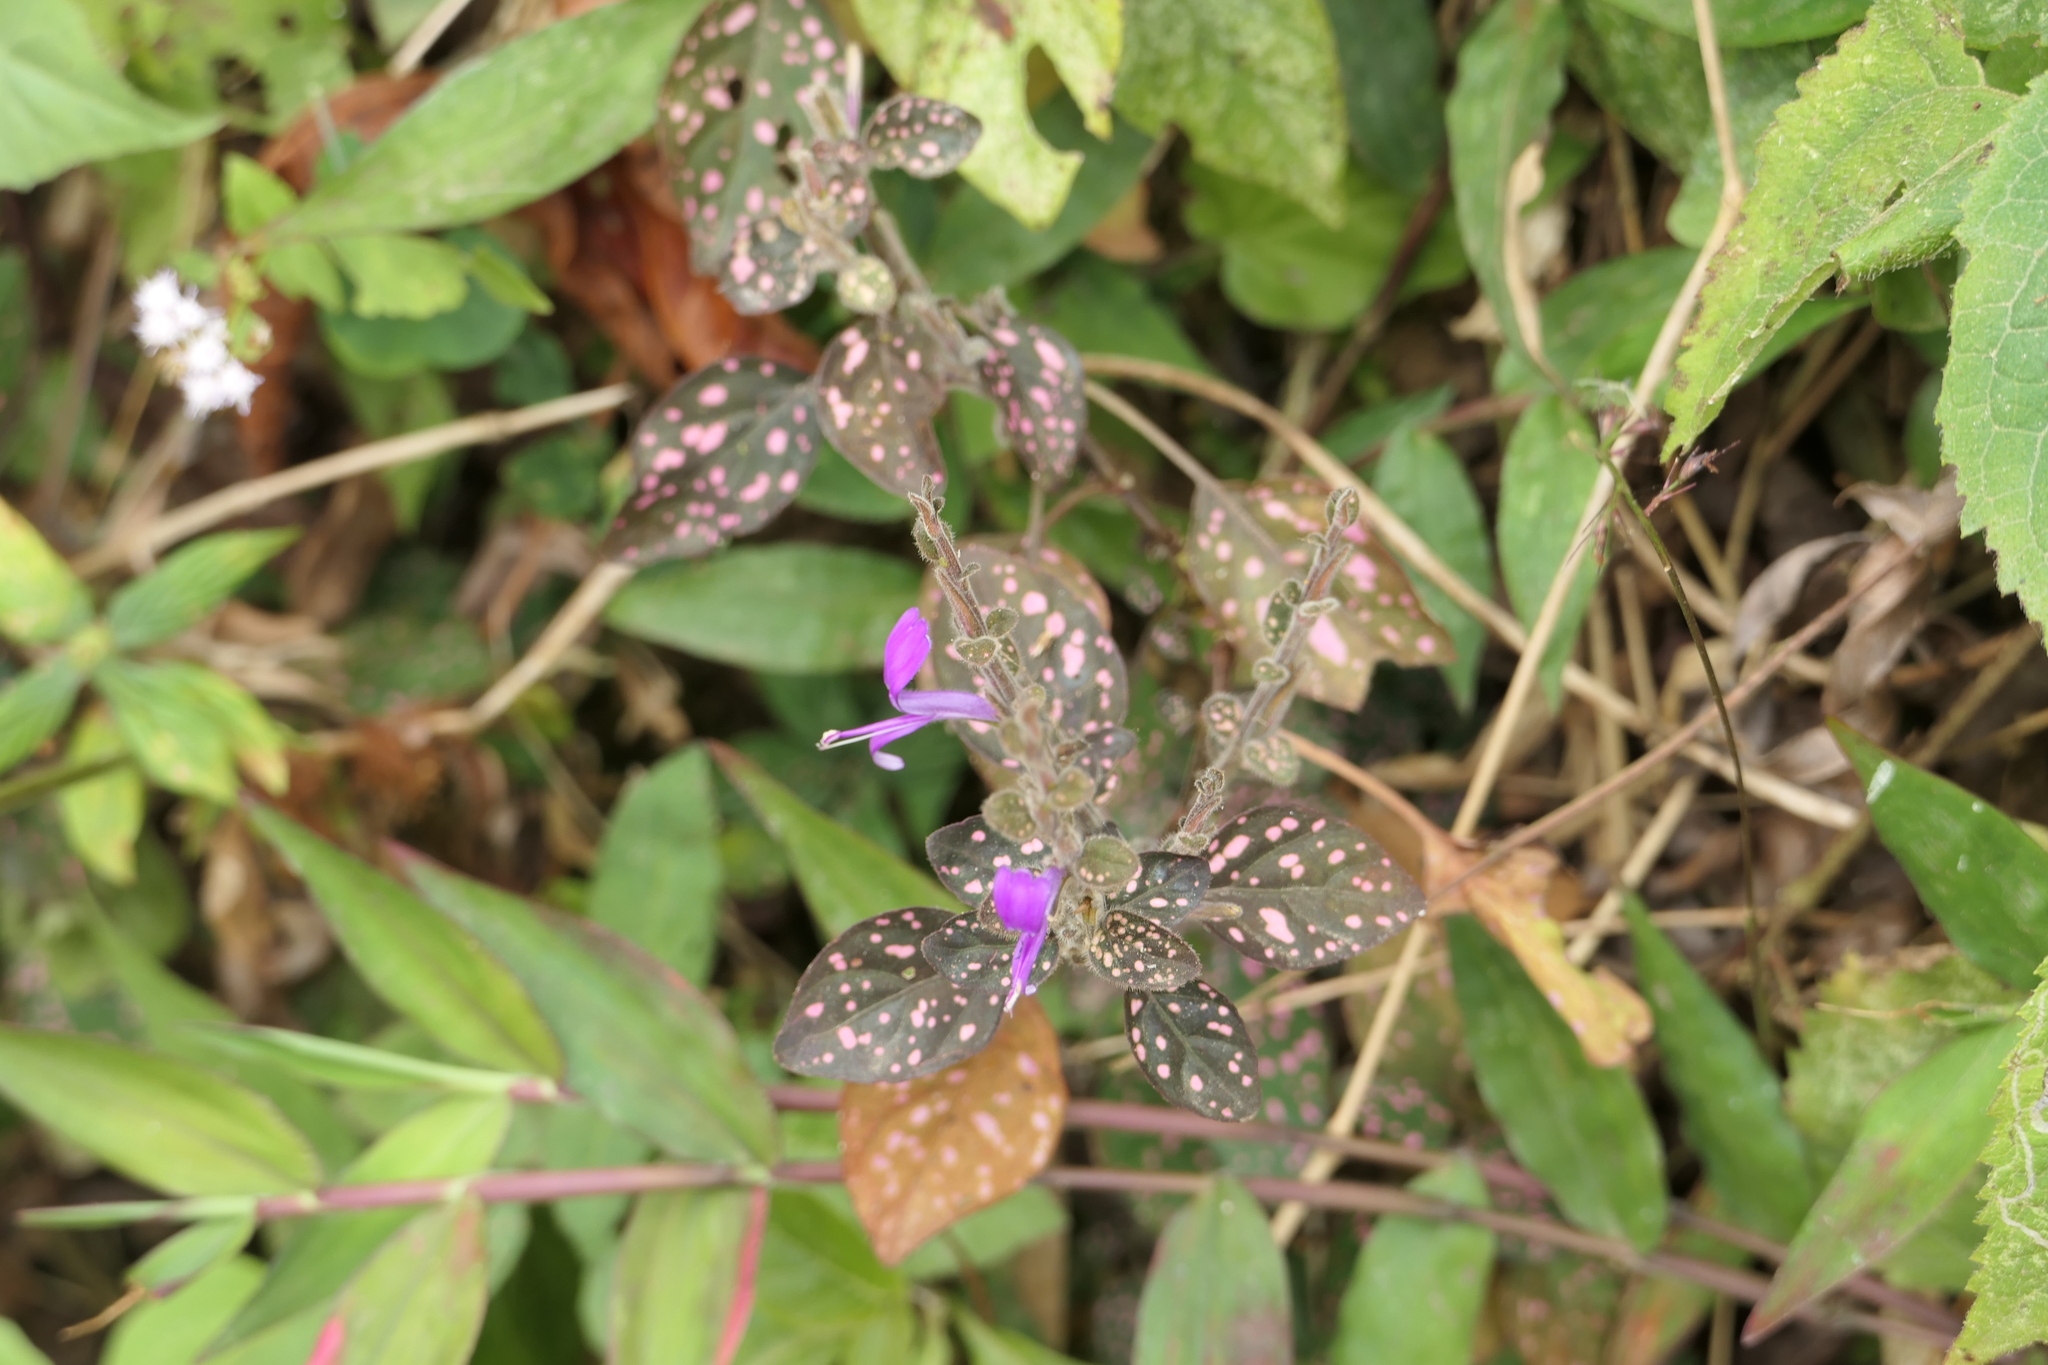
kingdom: Plantae
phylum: Tracheophyta
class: Magnoliopsida
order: Lamiales
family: Acanthaceae
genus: Hypoestes
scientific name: Hypoestes phyllostachya
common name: Polkadot-plant
